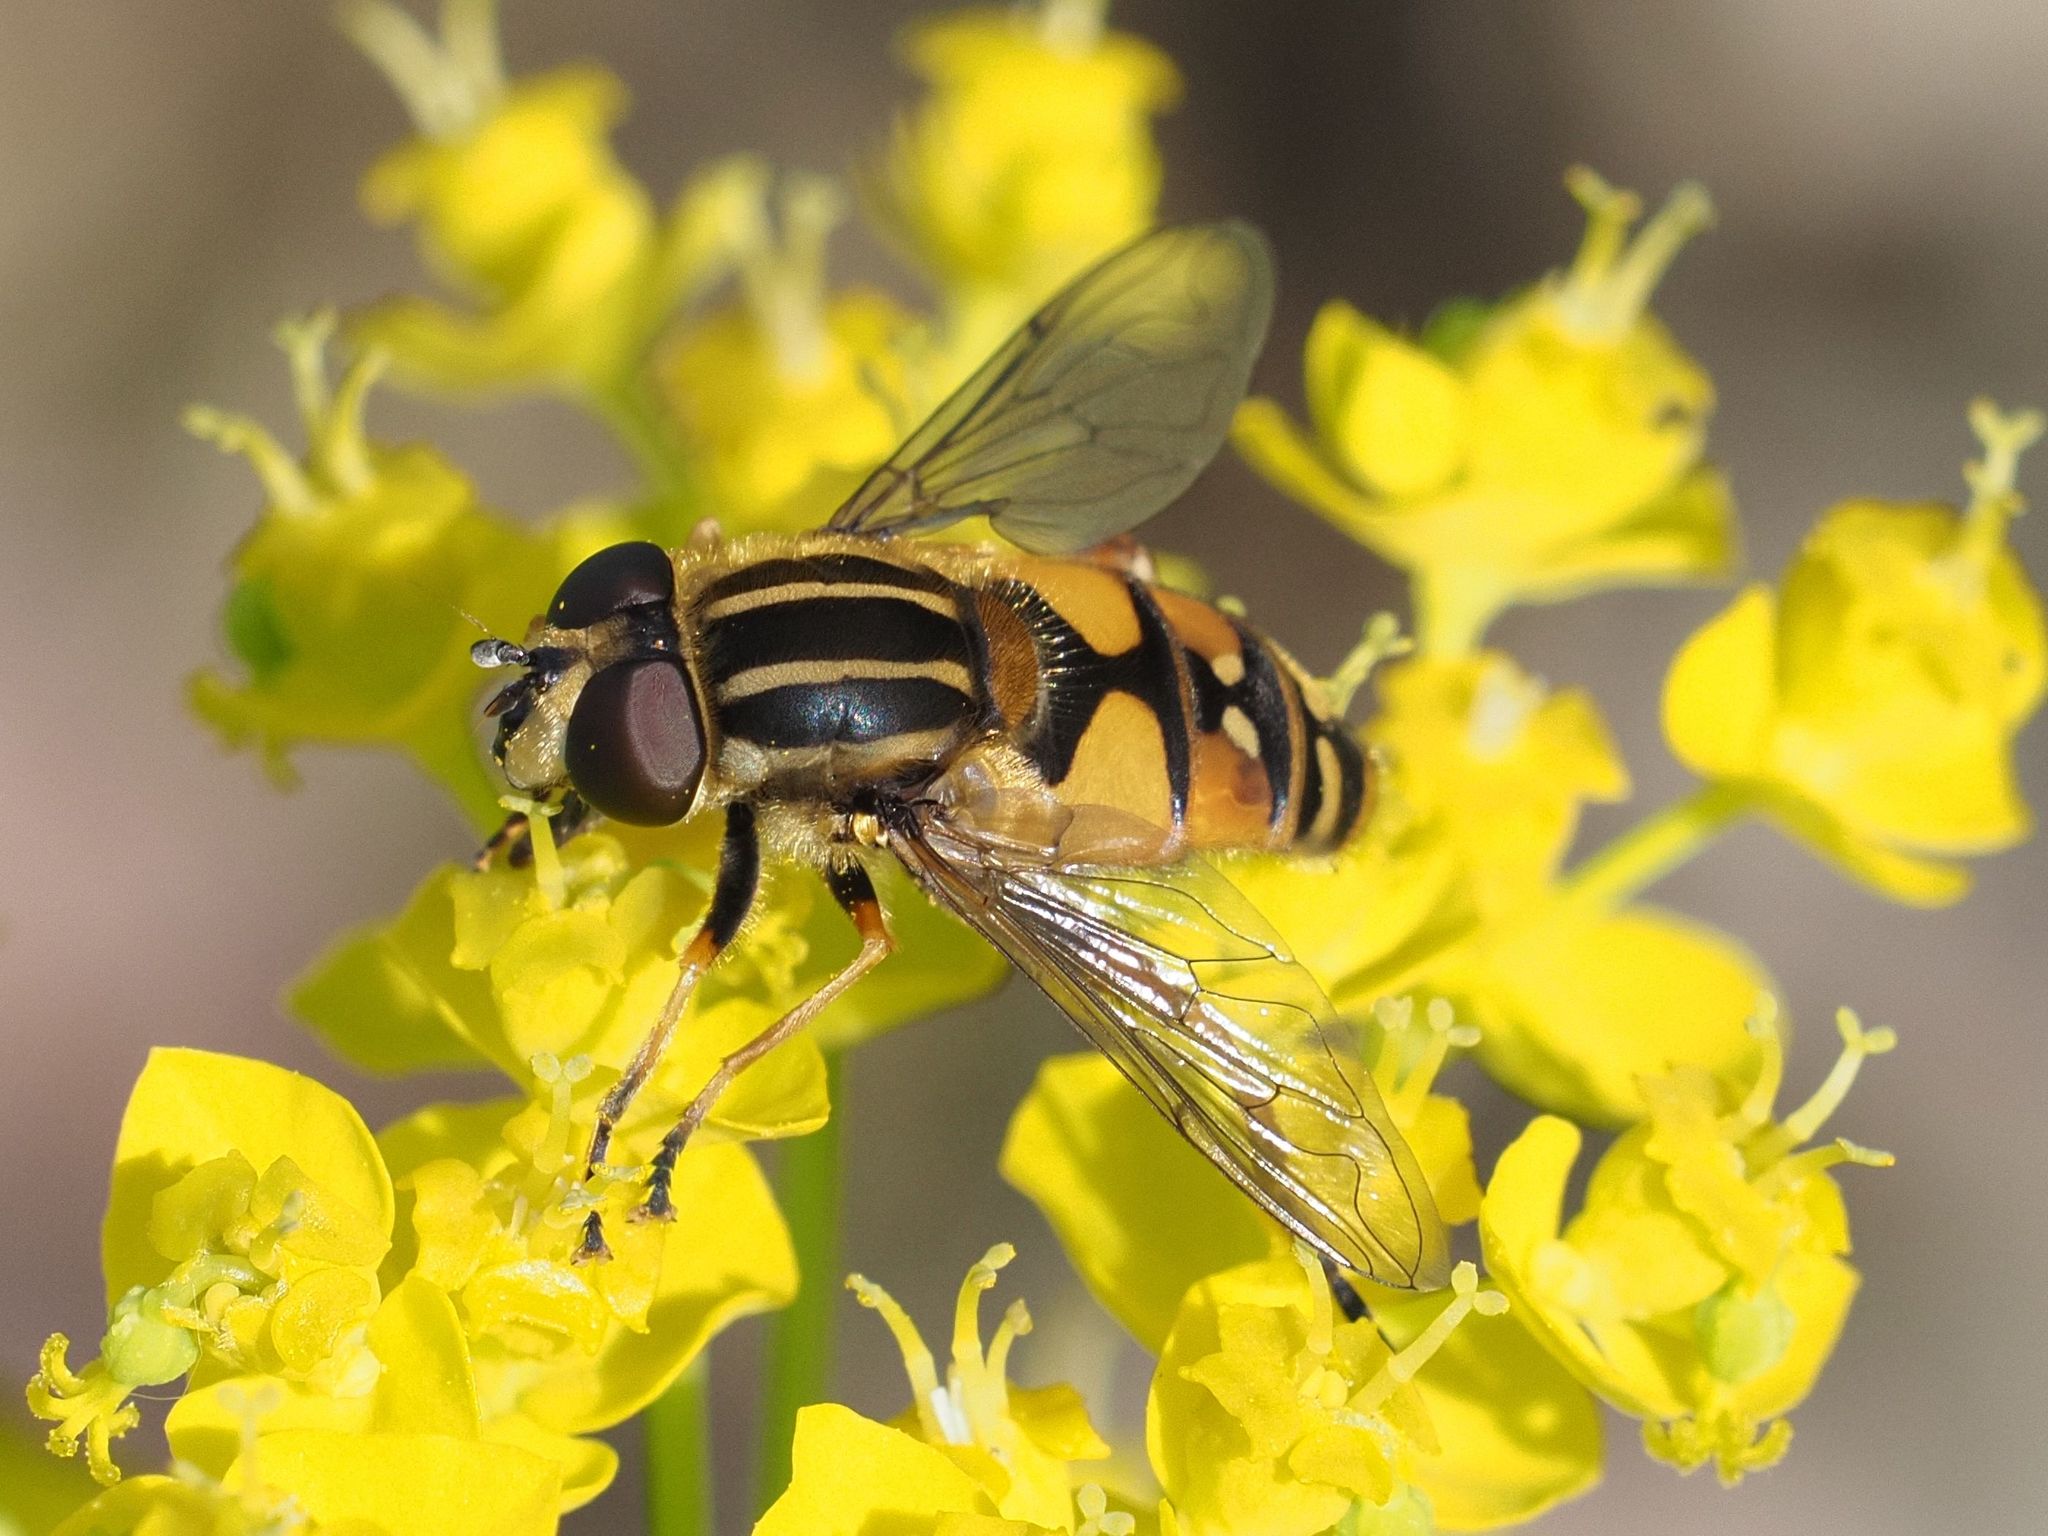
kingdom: Animalia
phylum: Arthropoda
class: Insecta
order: Diptera
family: Syrphidae
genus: Helophilus
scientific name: Helophilus pendulus
